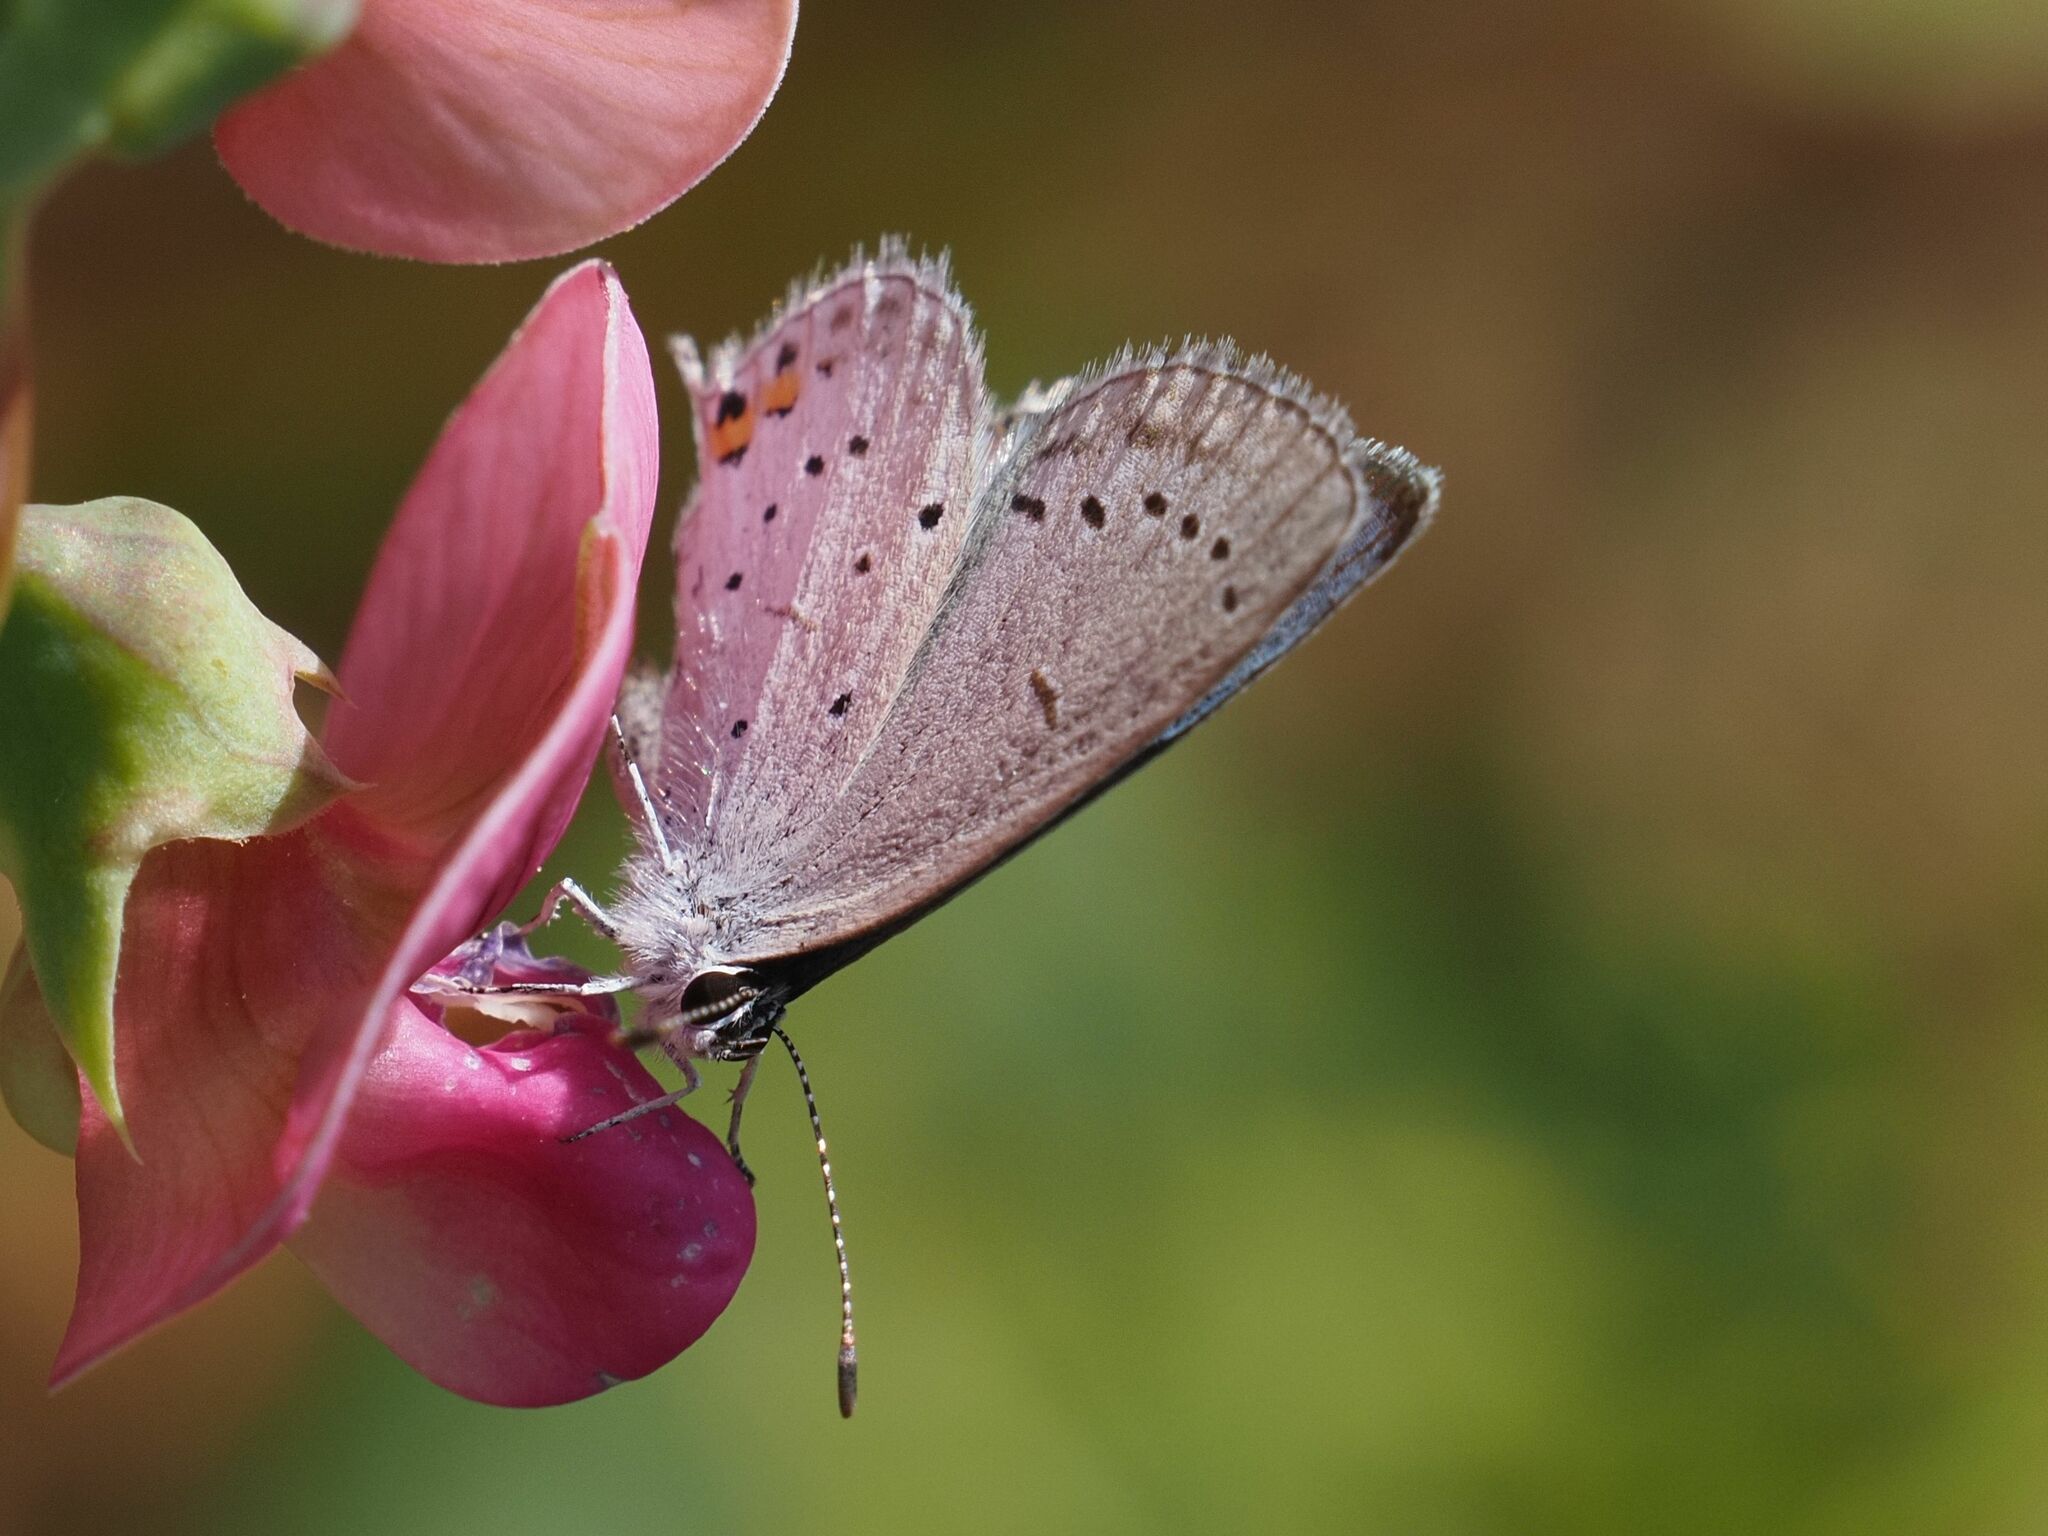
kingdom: Animalia
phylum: Arthropoda
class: Insecta
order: Lepidoptera
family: Lycaenidae
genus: Elkalyce
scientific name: Elkalyce argiades
